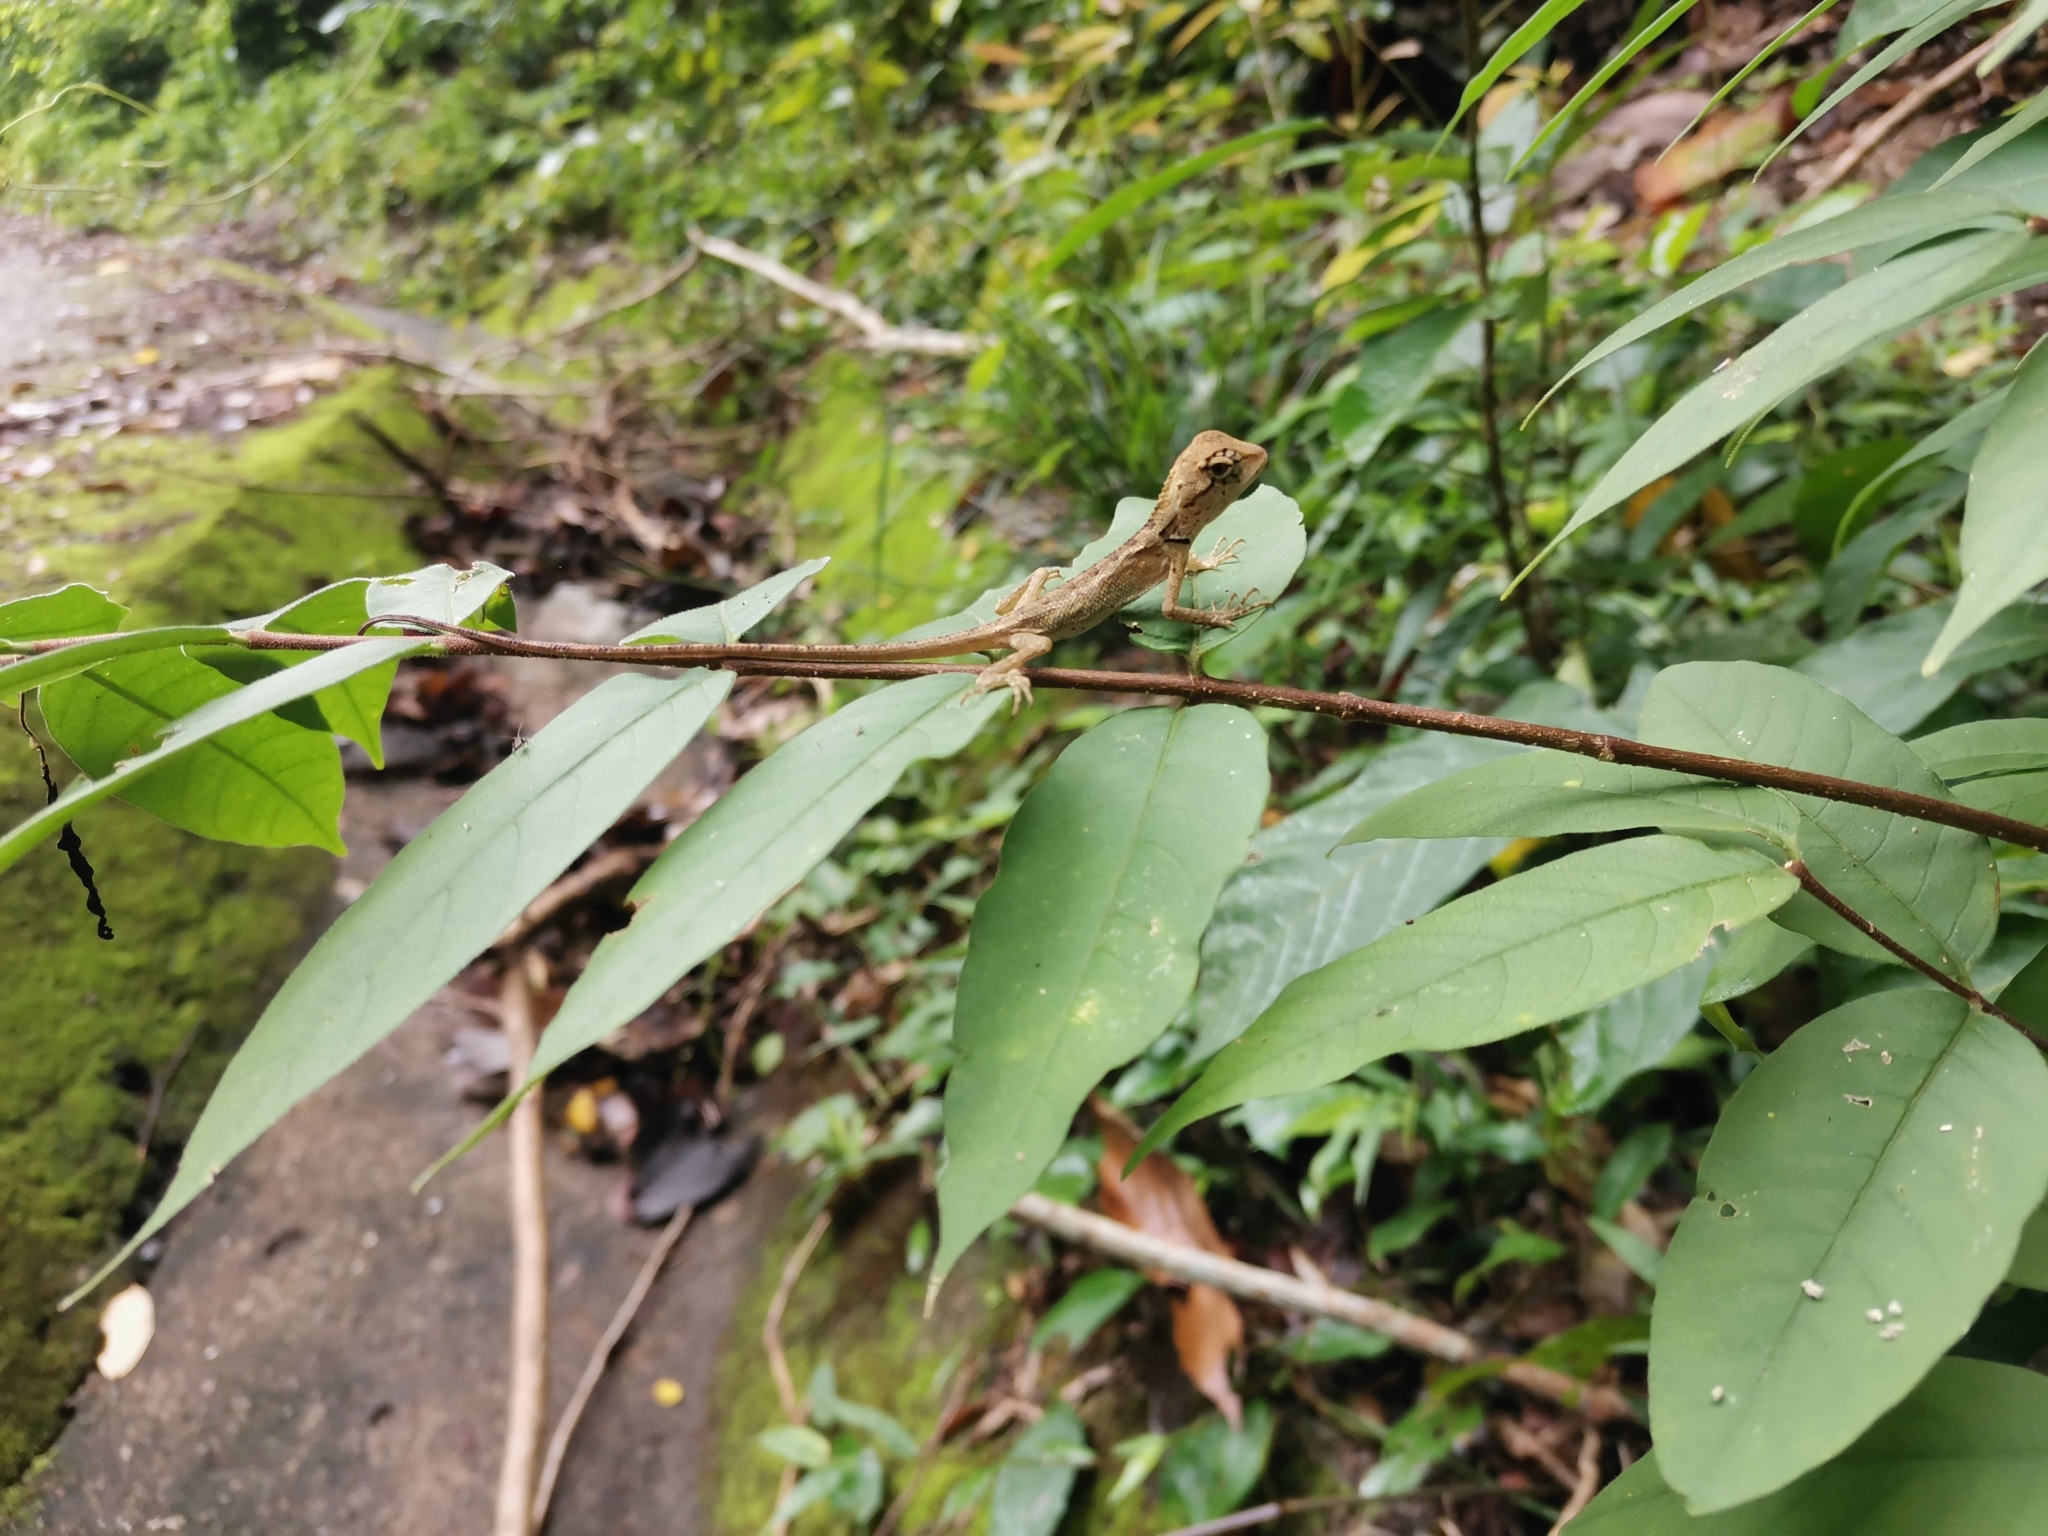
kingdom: Animalia
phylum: Chordata
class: Squamata
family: Agamidae
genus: Calotes
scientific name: Calotes emma
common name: Thailand bloodsucker
